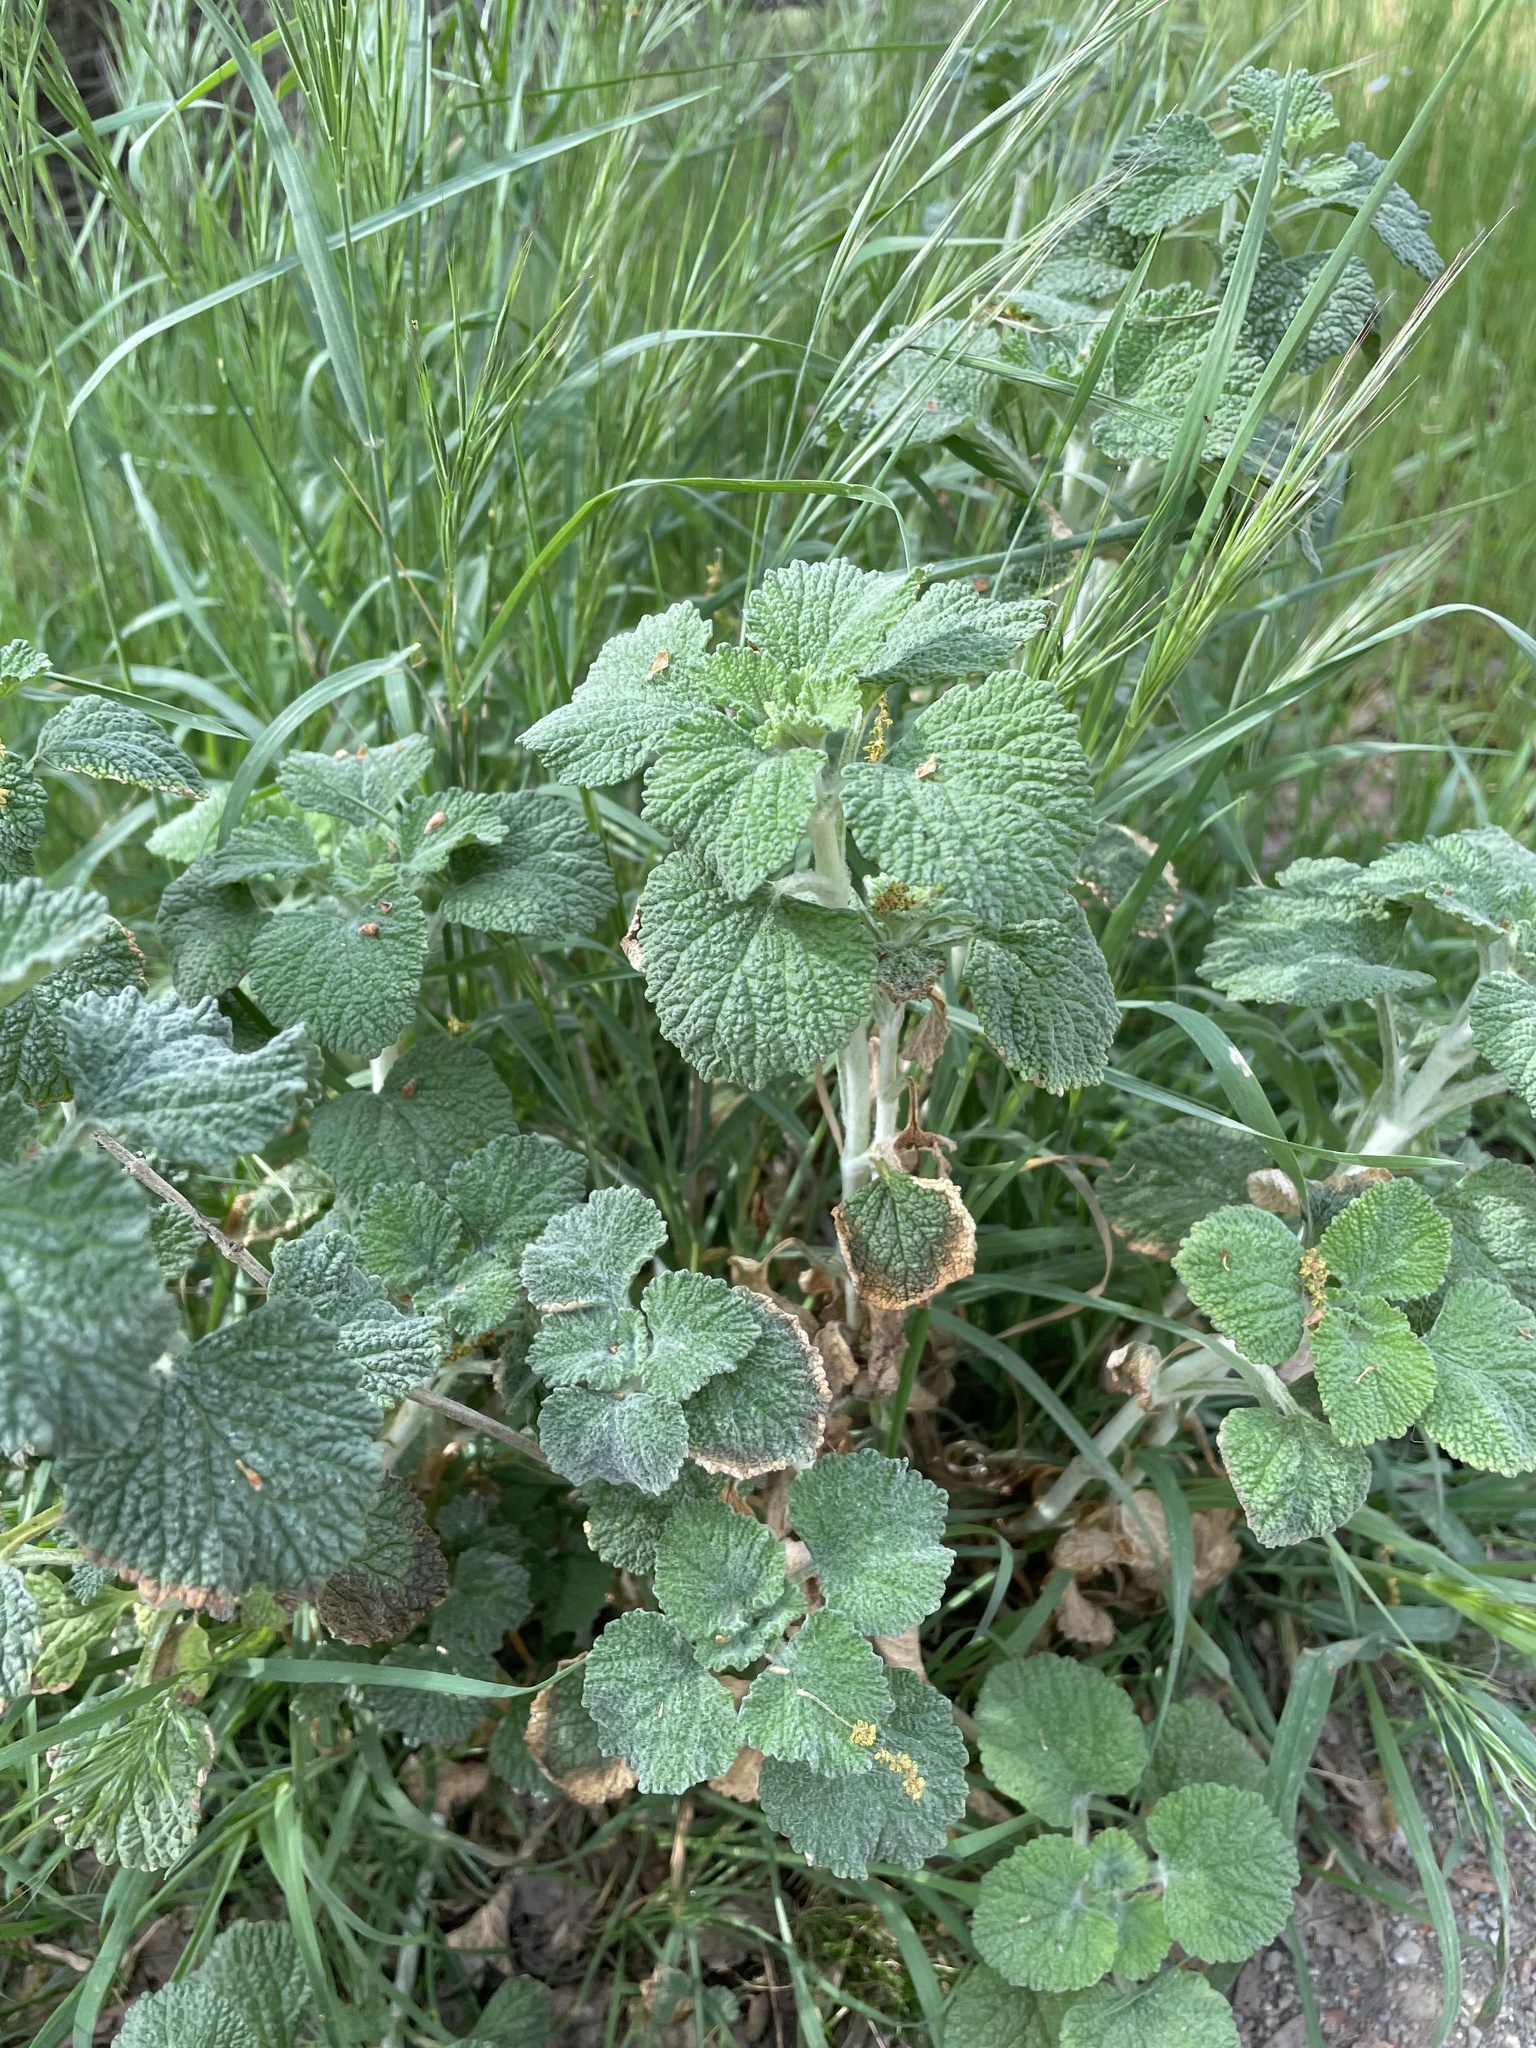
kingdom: Plantae
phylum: Tracheophyta
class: Magnoliopsida
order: Lamiales
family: Lamiaceae
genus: Marrubium
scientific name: Marrubium vulgare
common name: Horehound
